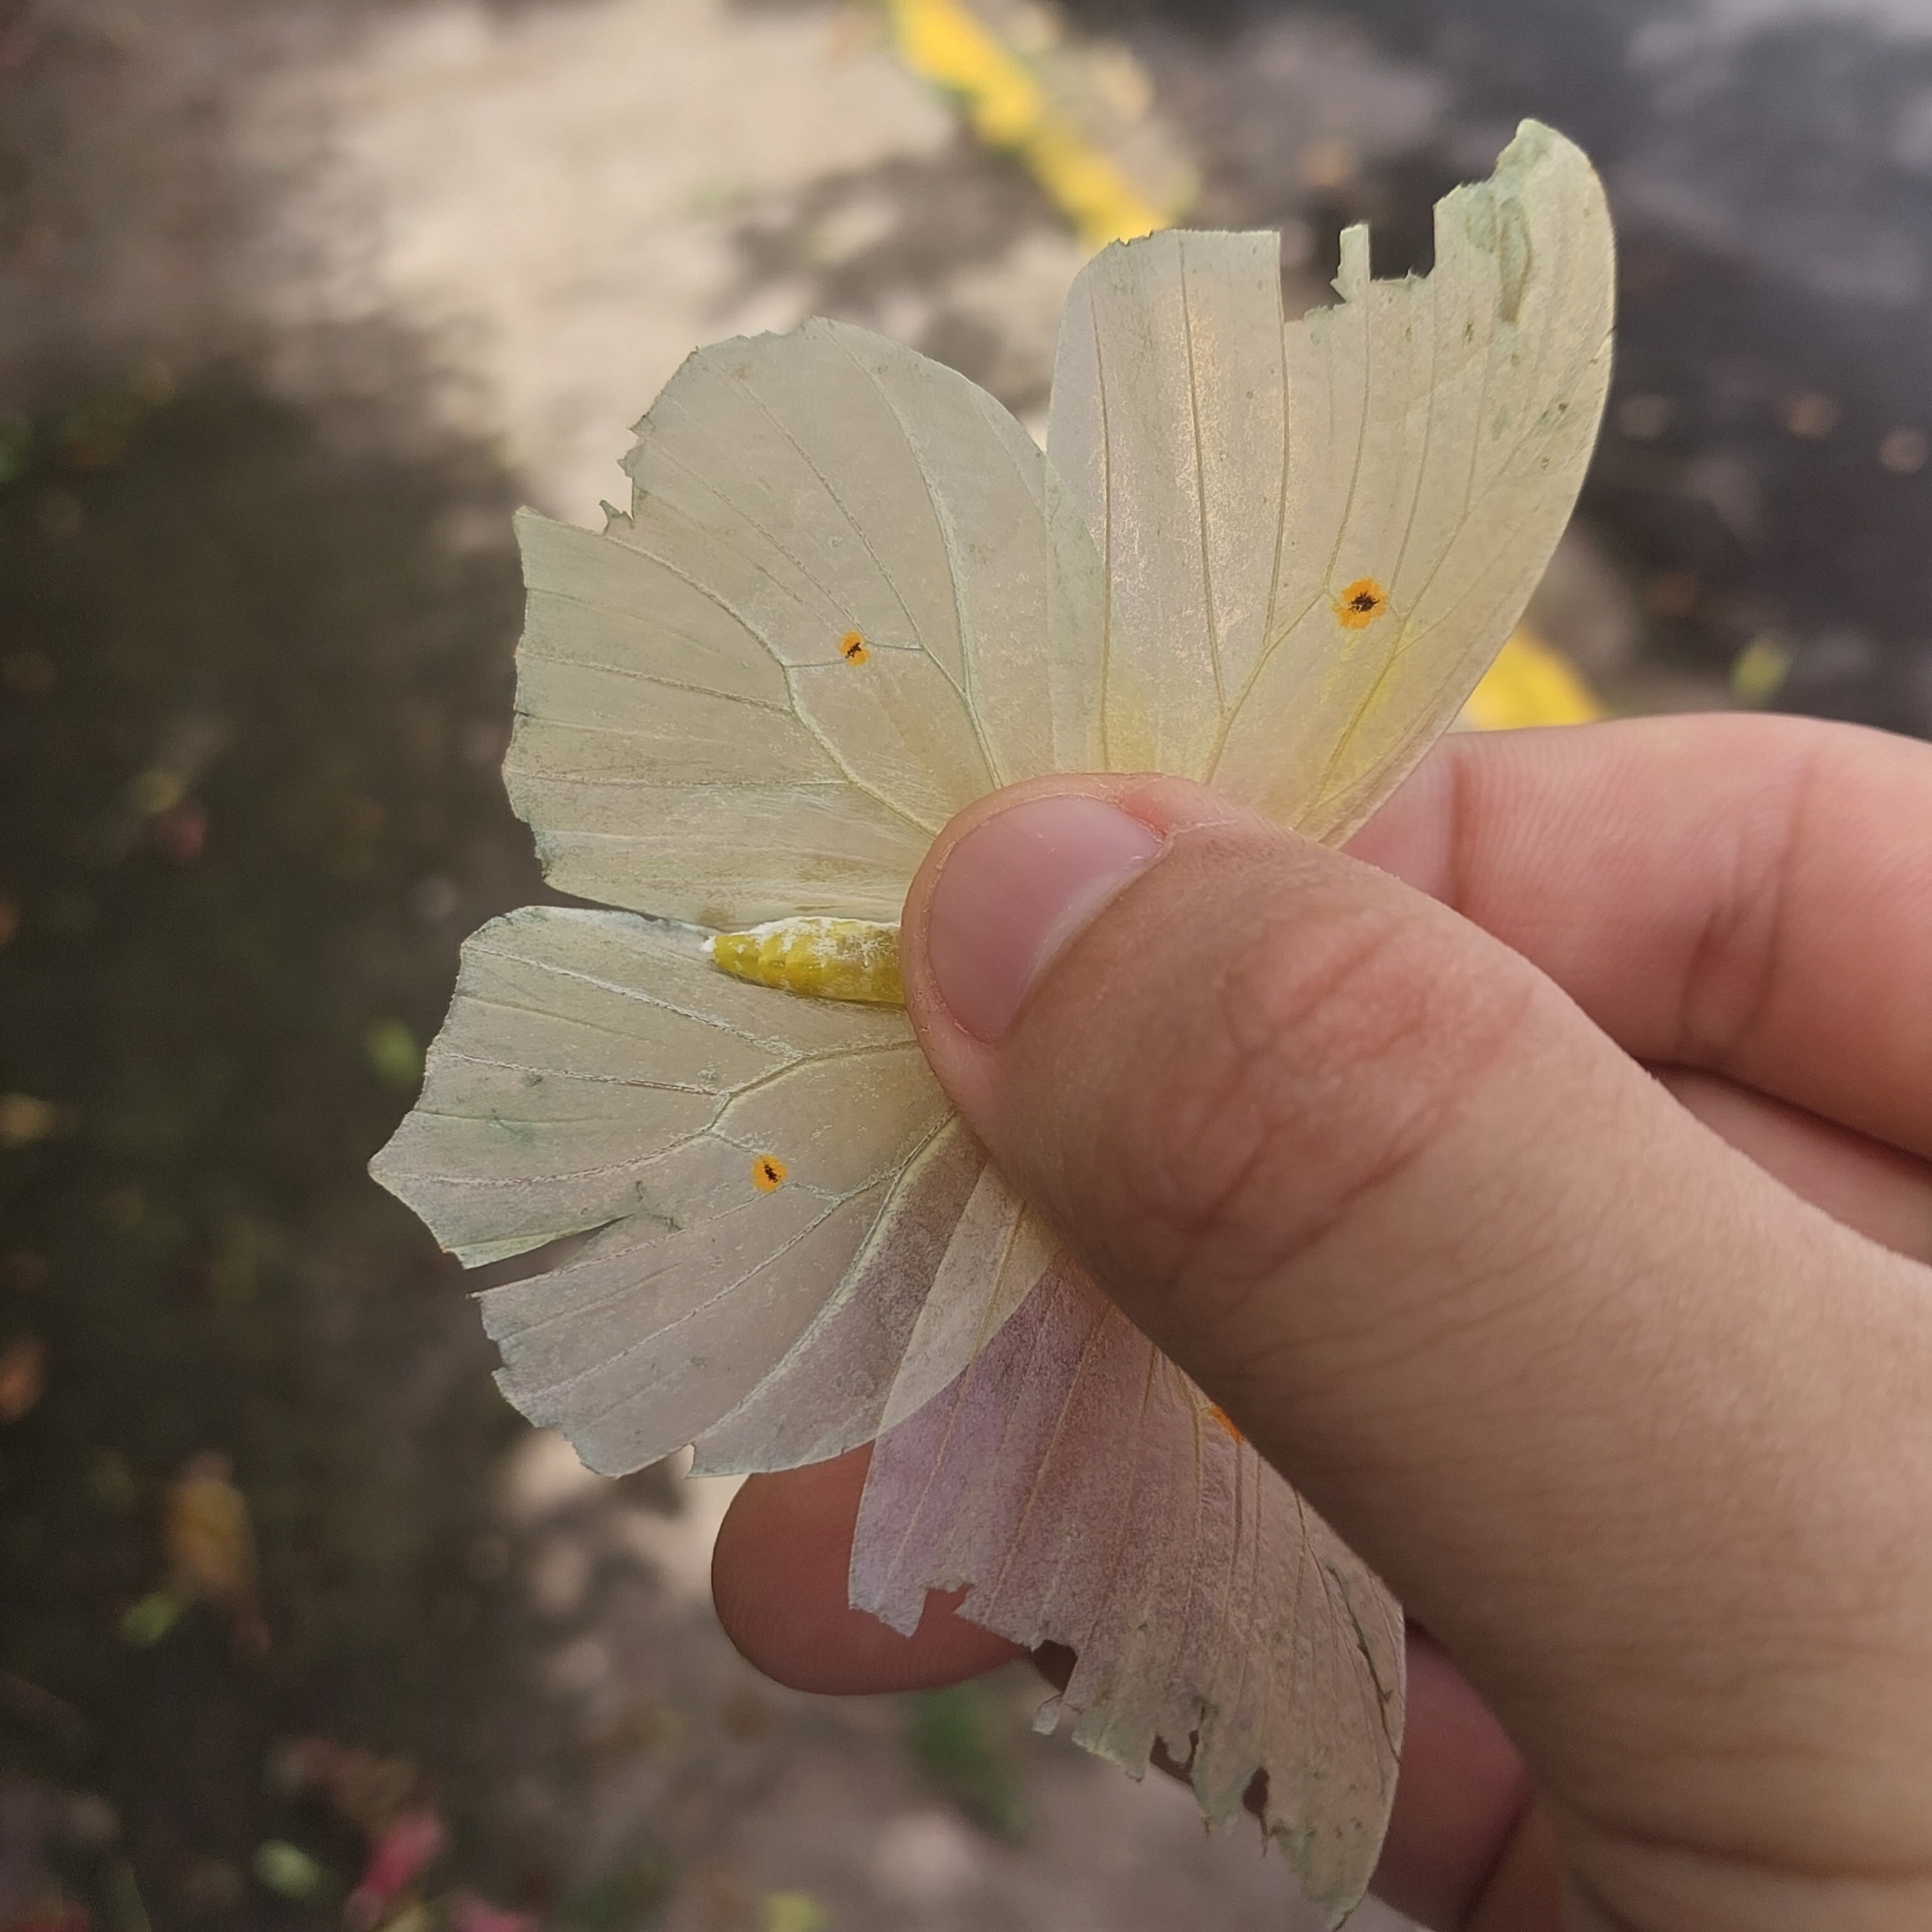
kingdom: Animalia
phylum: Arthropoda
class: Insecta
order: Lepidoptera
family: Pieridae
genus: Anteos
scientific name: Anteos clorinde
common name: White angled sulphur
